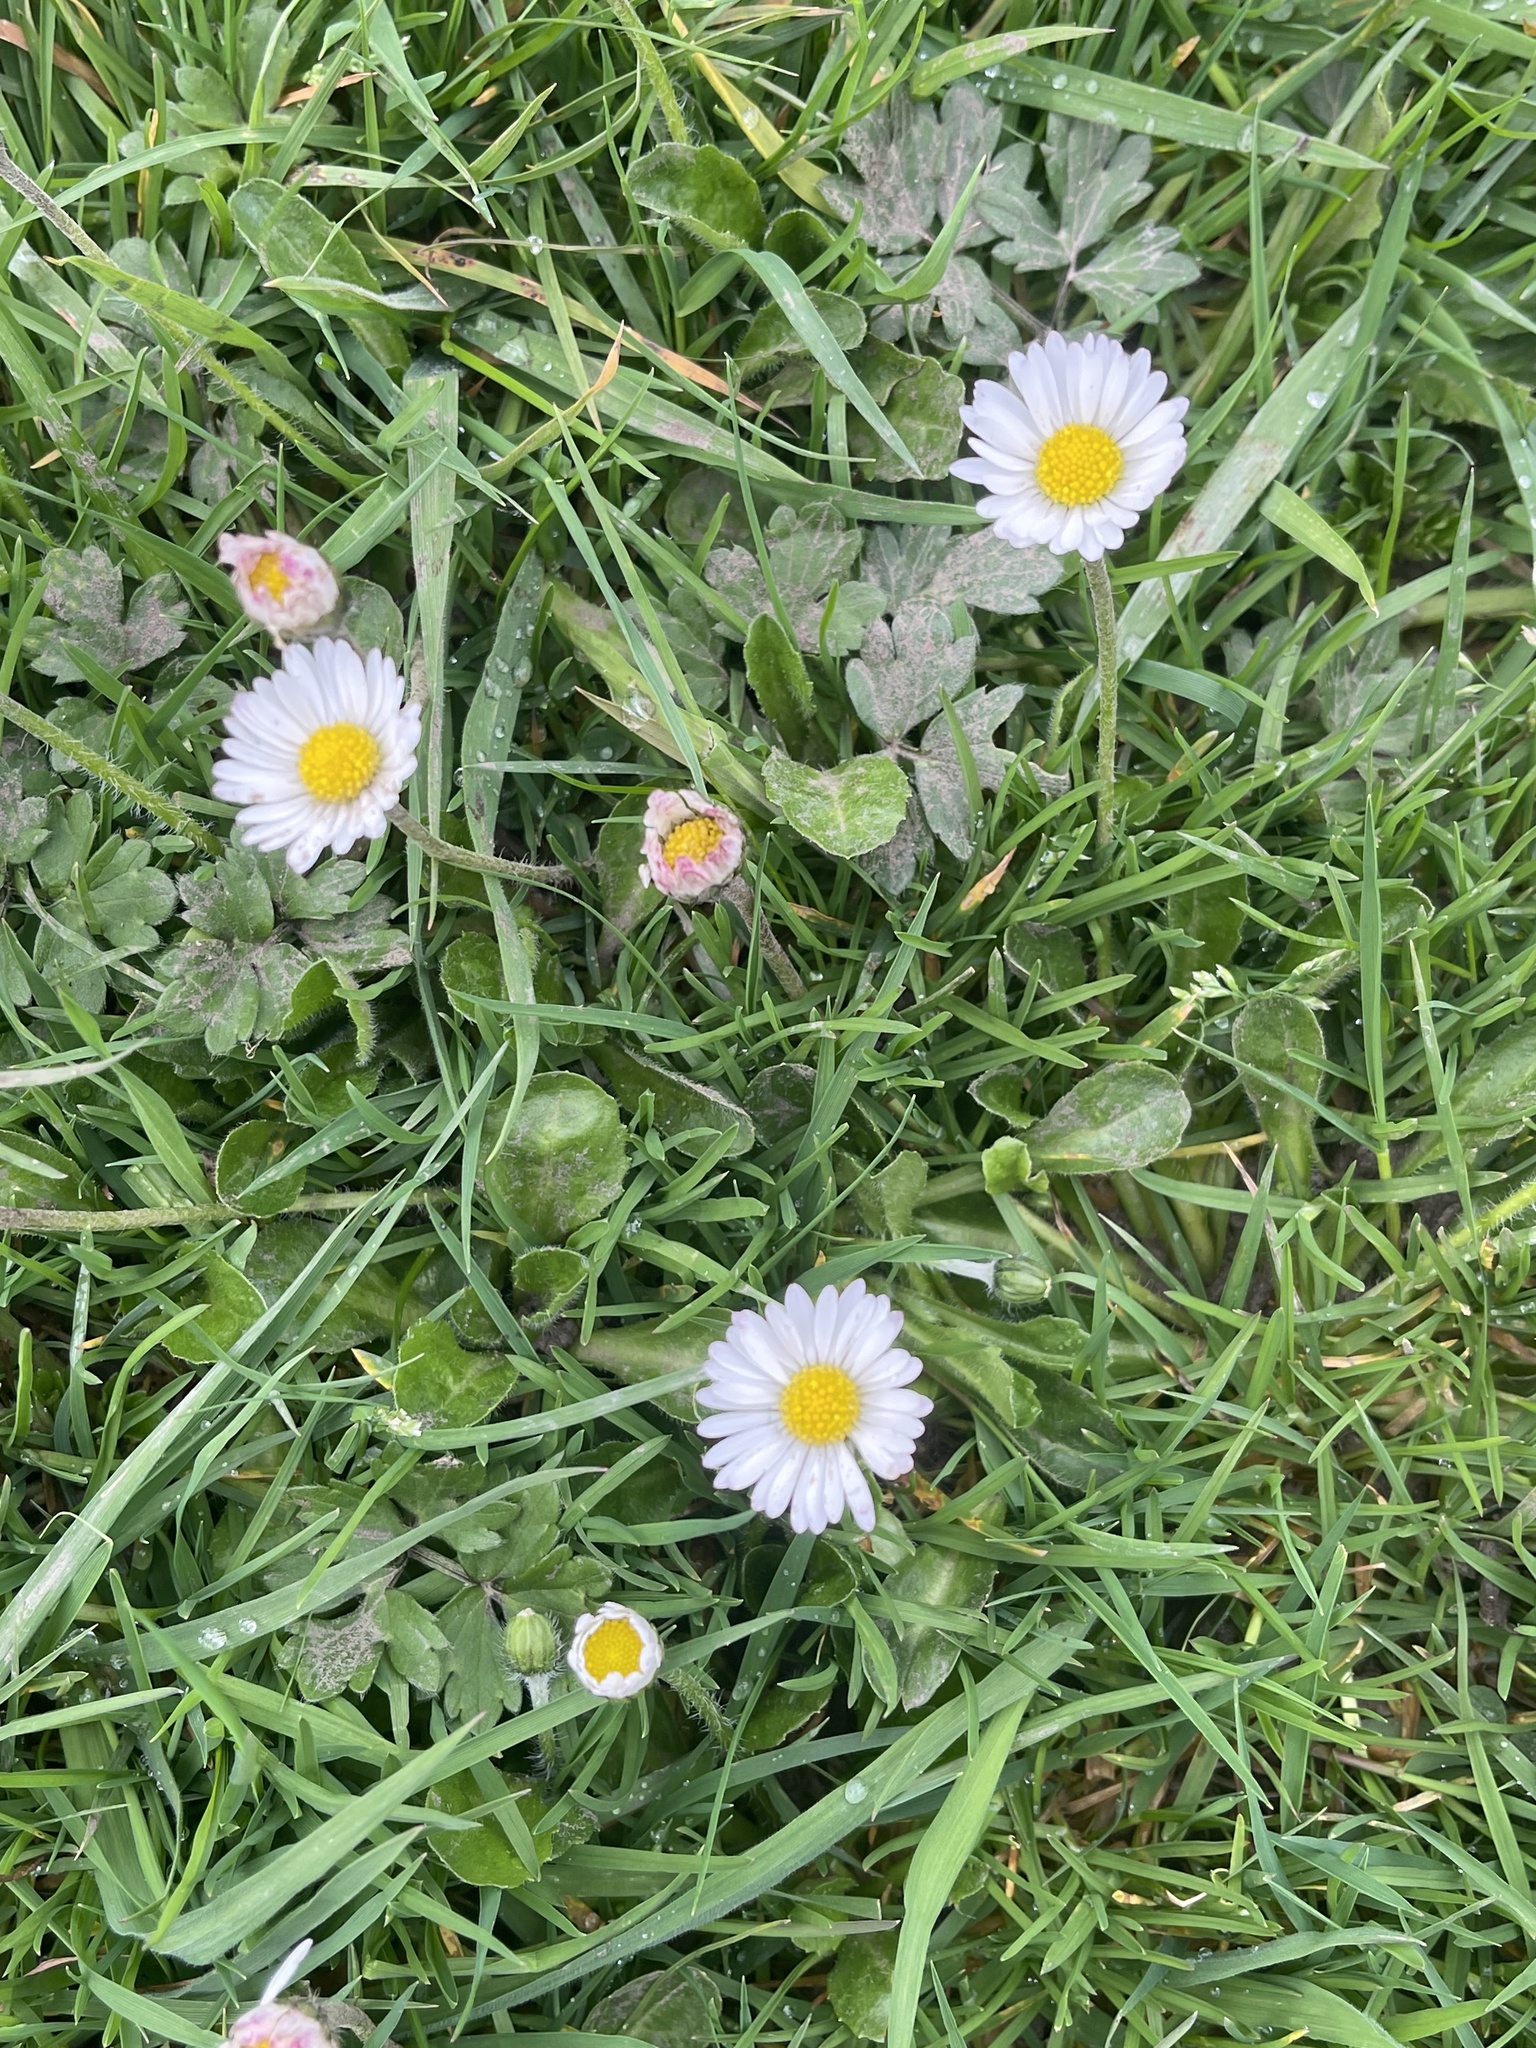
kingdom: Plantae
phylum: Tracheophyta
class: Magnoliopsida
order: Asterales
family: Asteraceae
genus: Bellis
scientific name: Bellis perennis
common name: Lawndaisy
